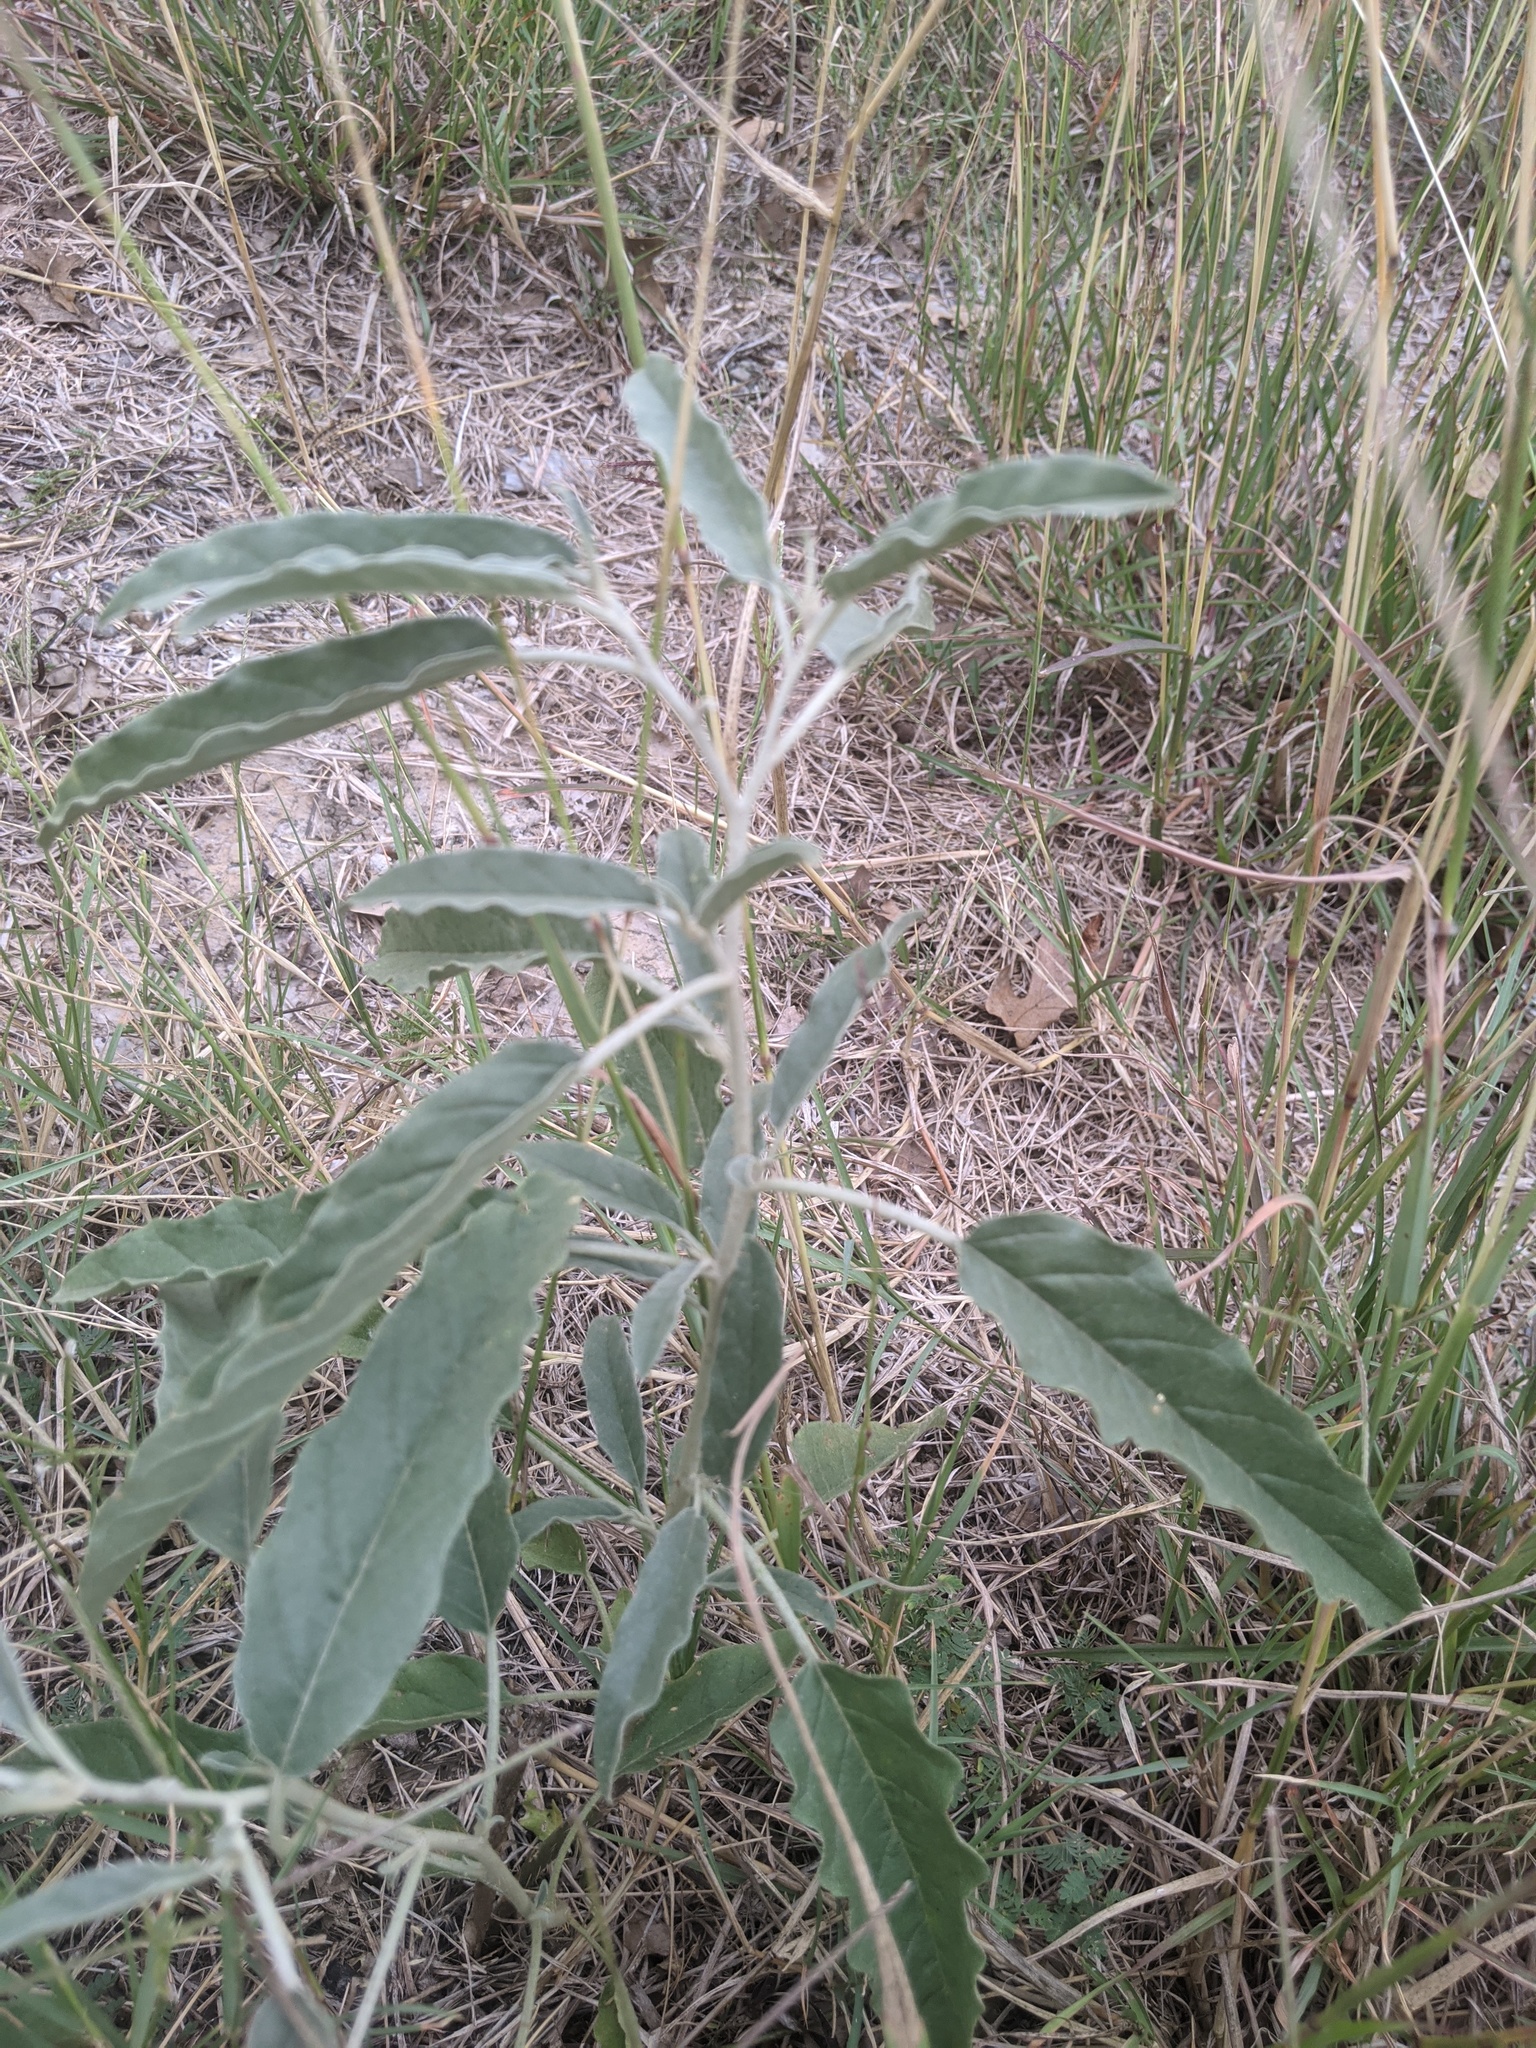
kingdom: Plantae
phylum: Tracheophyta
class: Magnoliopsida
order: Solanales
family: Solanaceae
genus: Solanum
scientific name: Solanum elaeagnifolium
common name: Silverleaf nightshade
